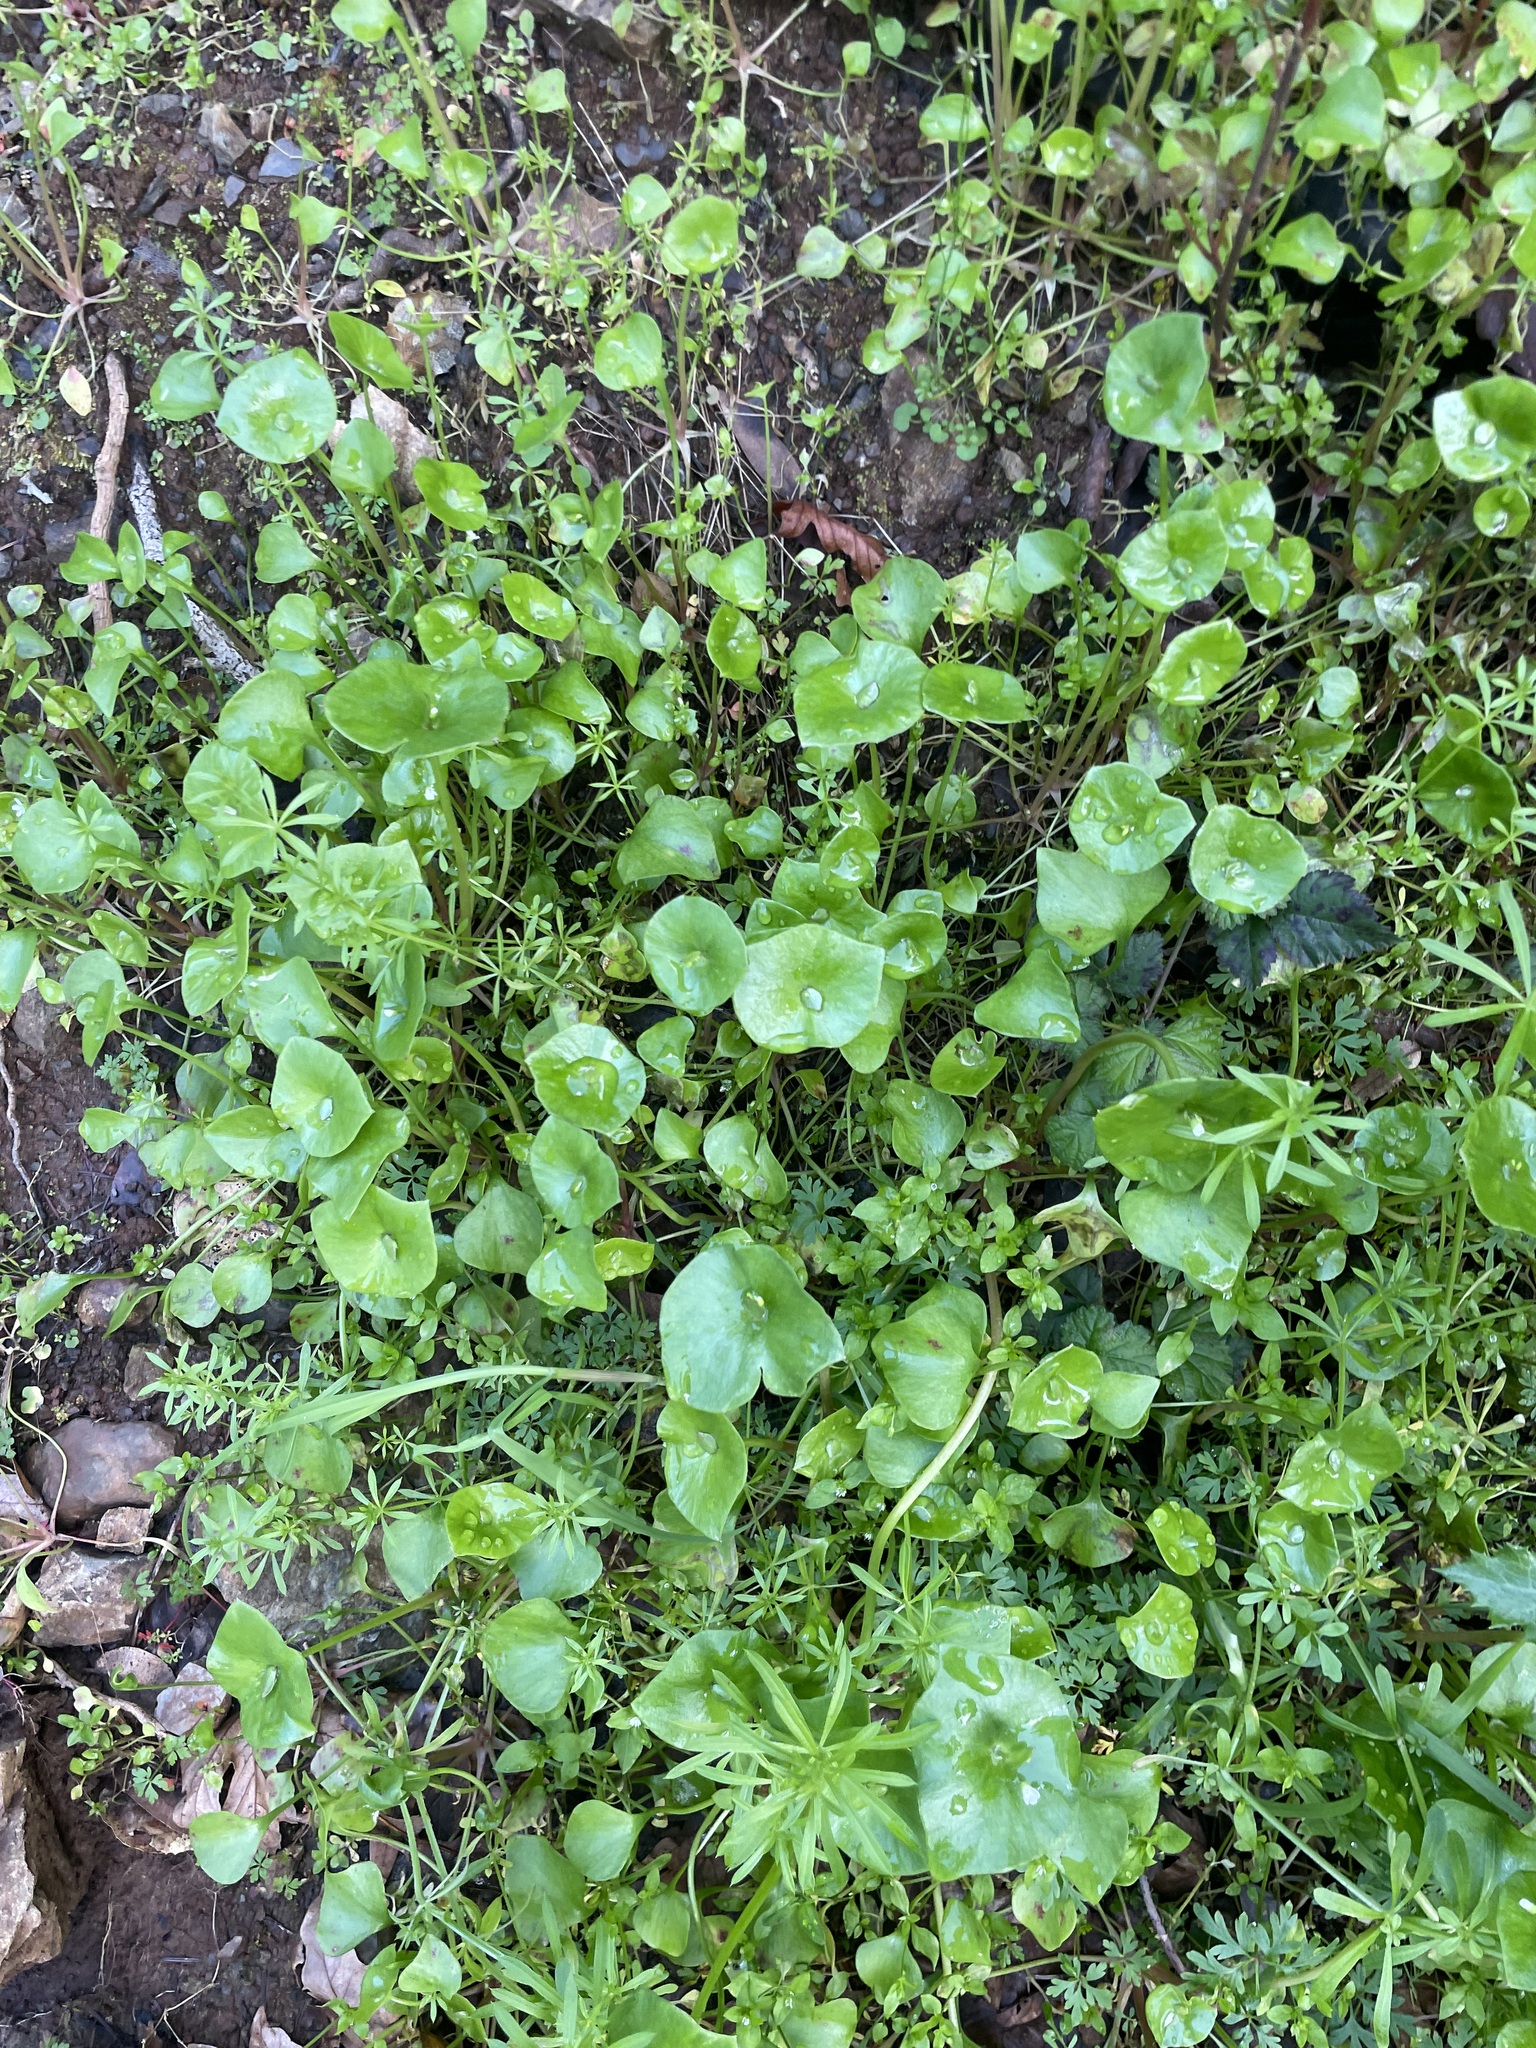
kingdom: Plantae
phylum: Tracheophyta
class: Magnoliopsida
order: Caryophyllales
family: Montiaceae
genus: Claytonia
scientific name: Claytonia perfoliata
